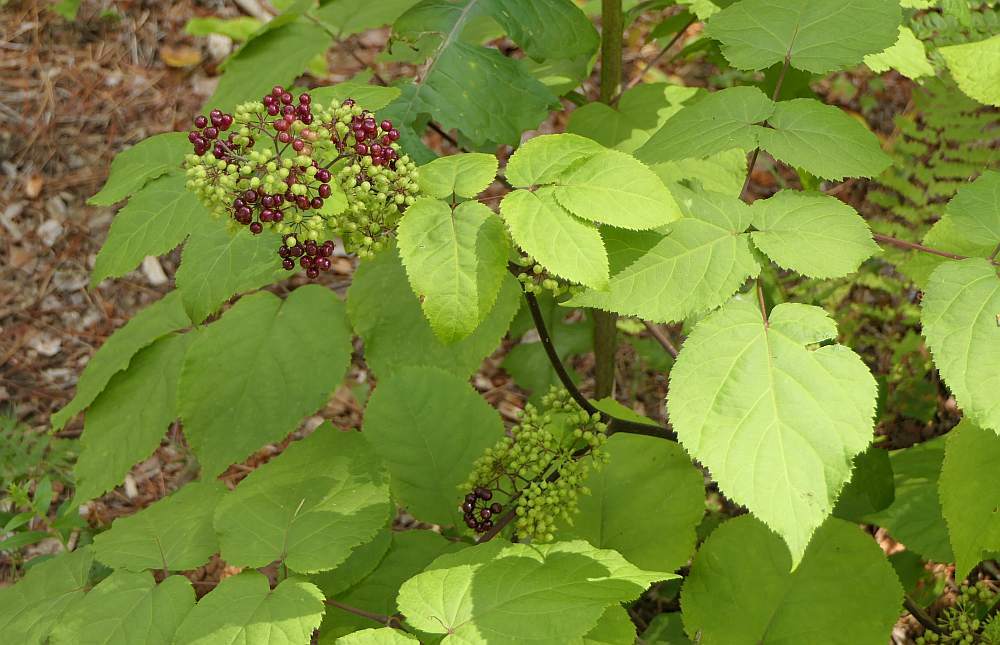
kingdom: Plantae
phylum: Tracheophyta
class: Magnoliopsida
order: Apiales
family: Araliaceae
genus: Aralia
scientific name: Aralia racemosa
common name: American-spikenard
